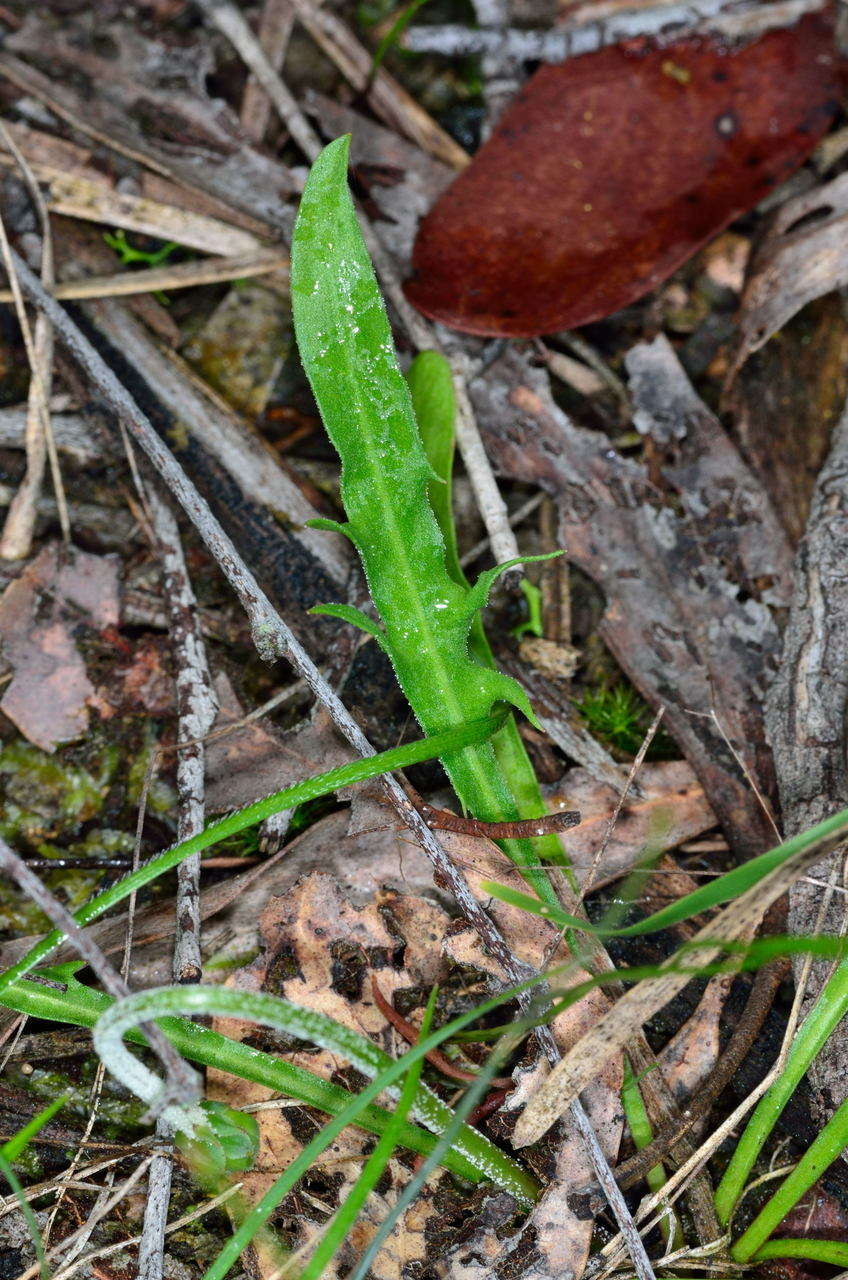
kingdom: Plantae
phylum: Tracheophyta
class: Magnoliopsida
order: Asterales
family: Asteraceae
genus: Microseris
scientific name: Microseris lanceolata
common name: Yam daisy
